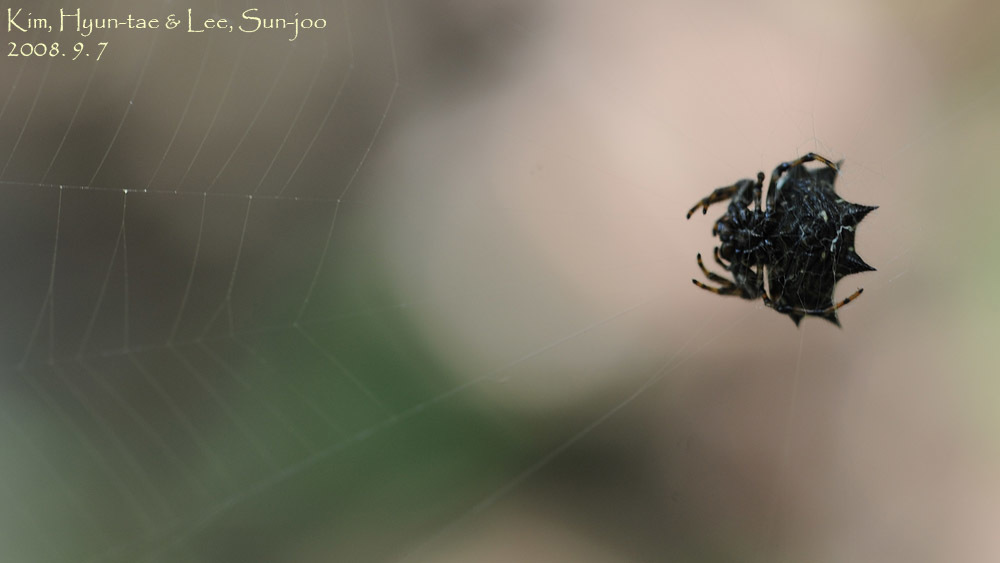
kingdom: Animalia
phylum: Arthropoda
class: Arachnida
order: Araneae
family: Araneidae
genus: Gasteracantha
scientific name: Gasteracantha kuhli
